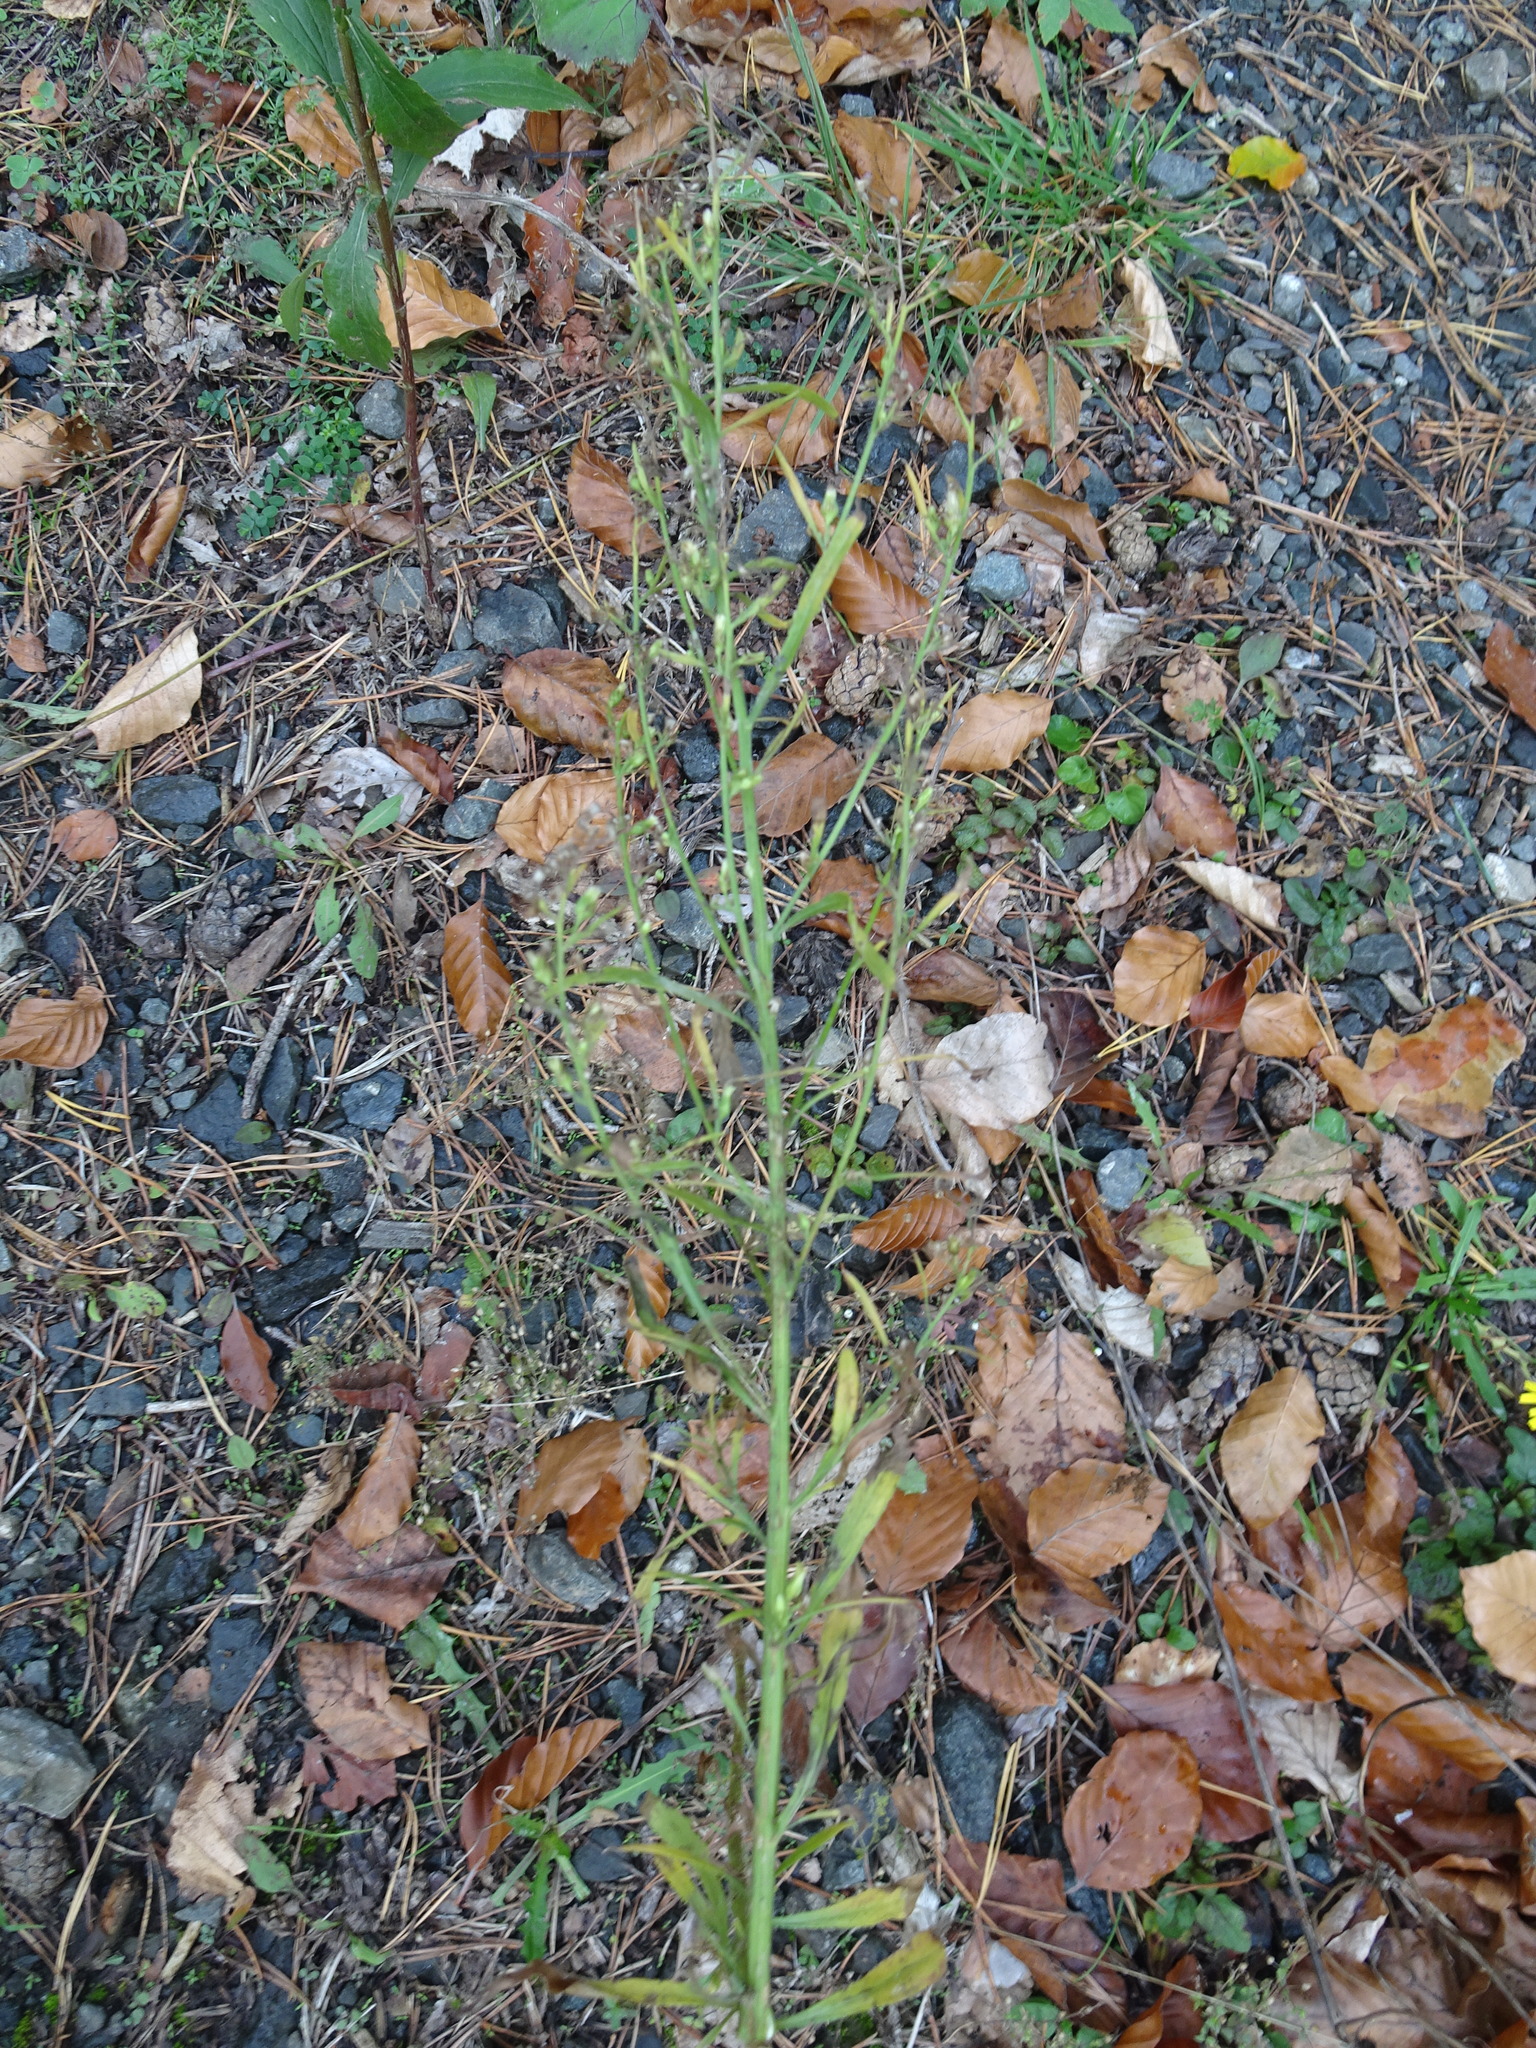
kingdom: Plantae
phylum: Tracheophyta
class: Magnoliopsida
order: Asterales
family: Asteraceae
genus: Erigeron
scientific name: Erigeron canadensis
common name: Canadian fleabane
